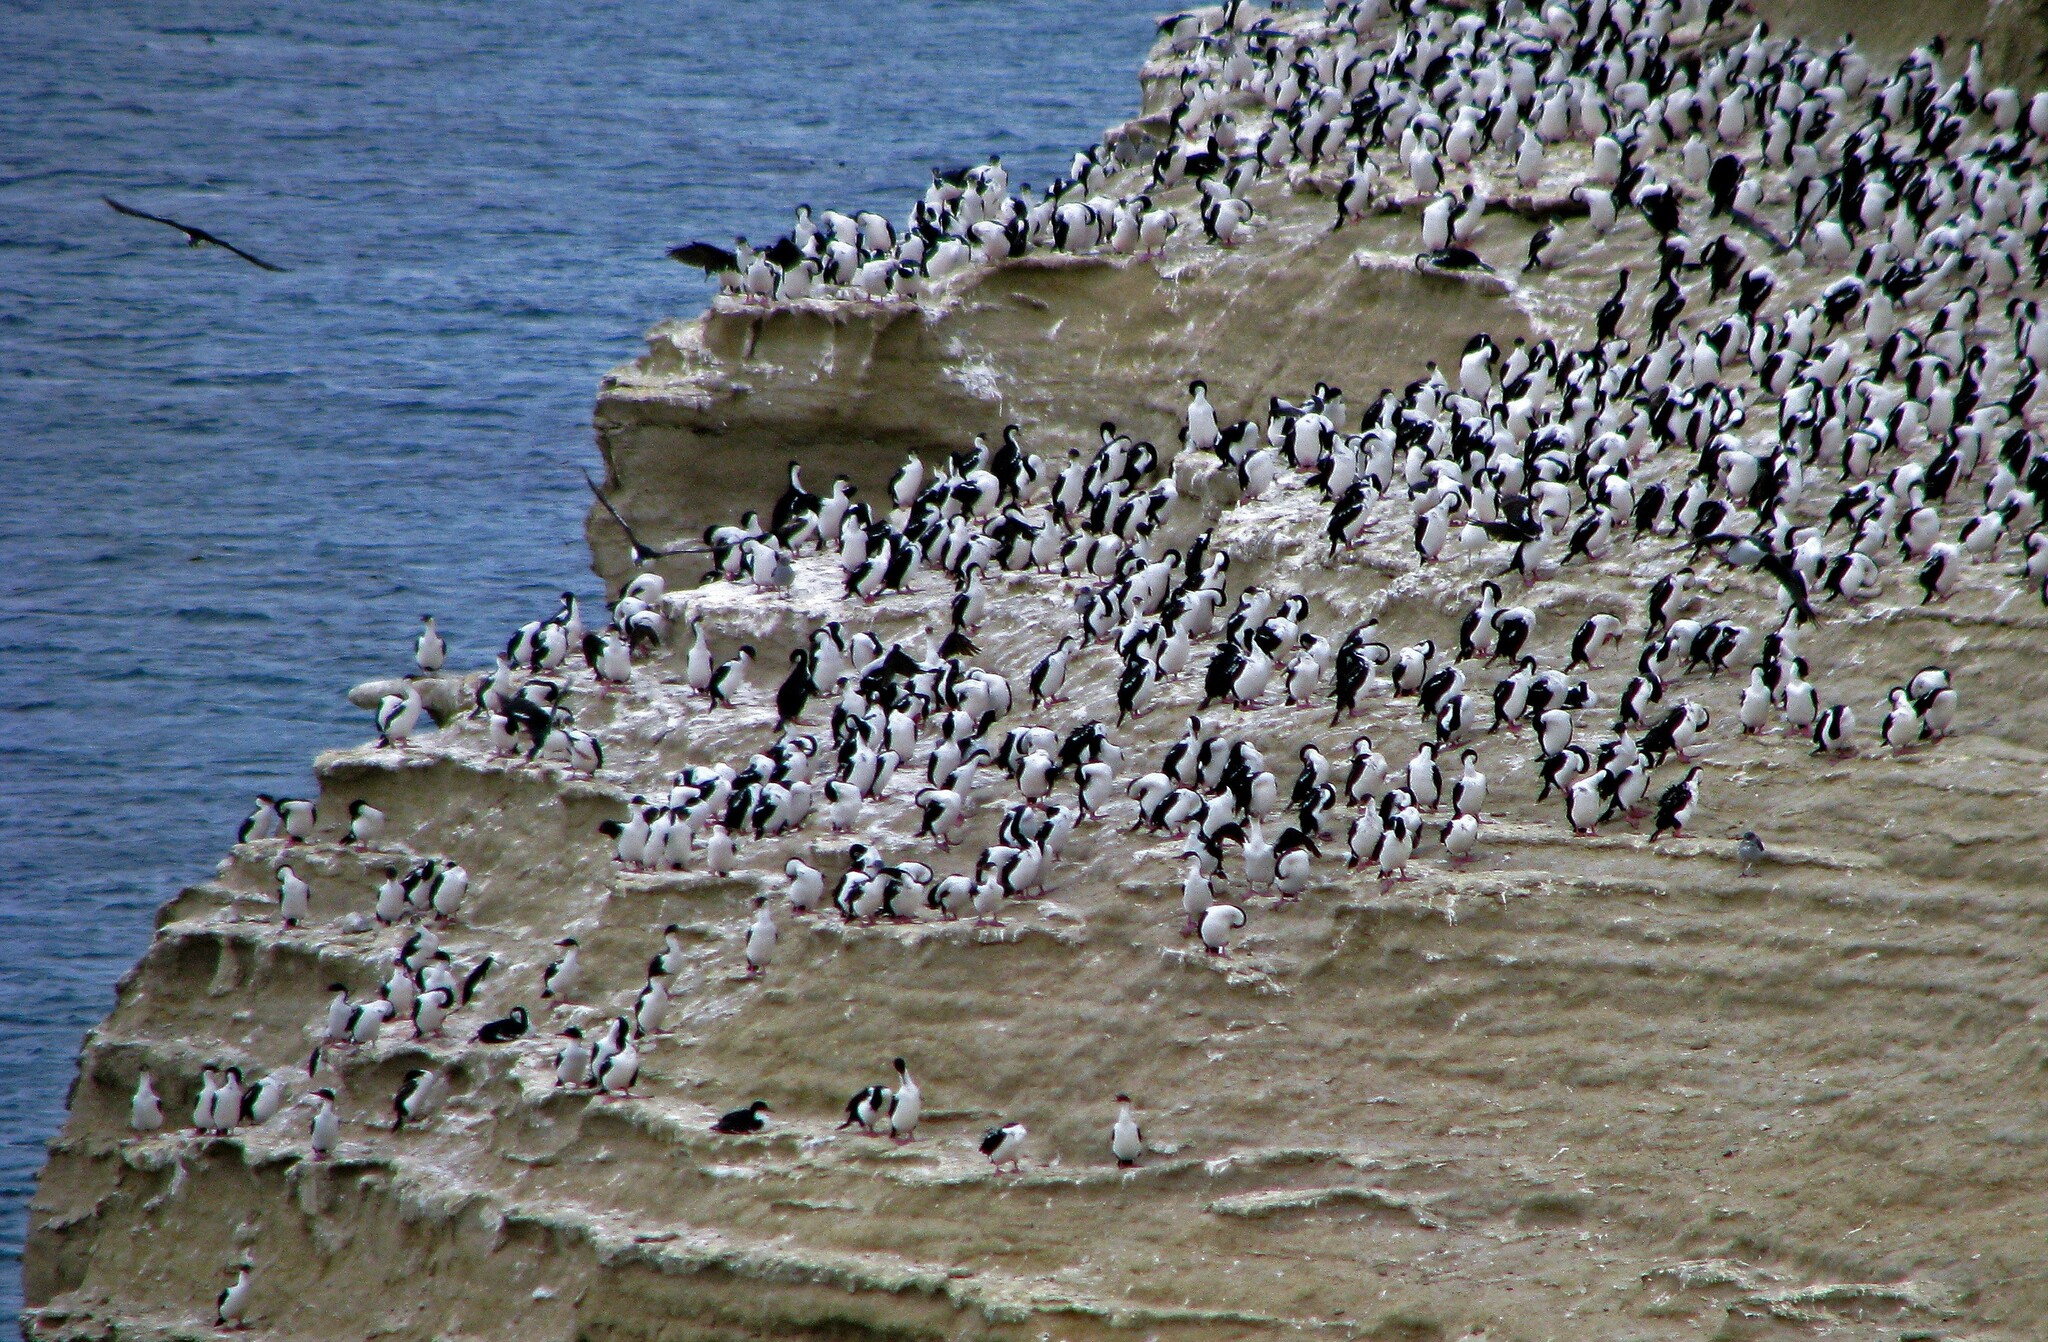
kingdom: Animalia
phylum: Chordata
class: Aves
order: Suliformes
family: Phalacrocoracidae
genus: Leucocarbo
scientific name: Leucocarbo atriceps
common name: Imperial shag
